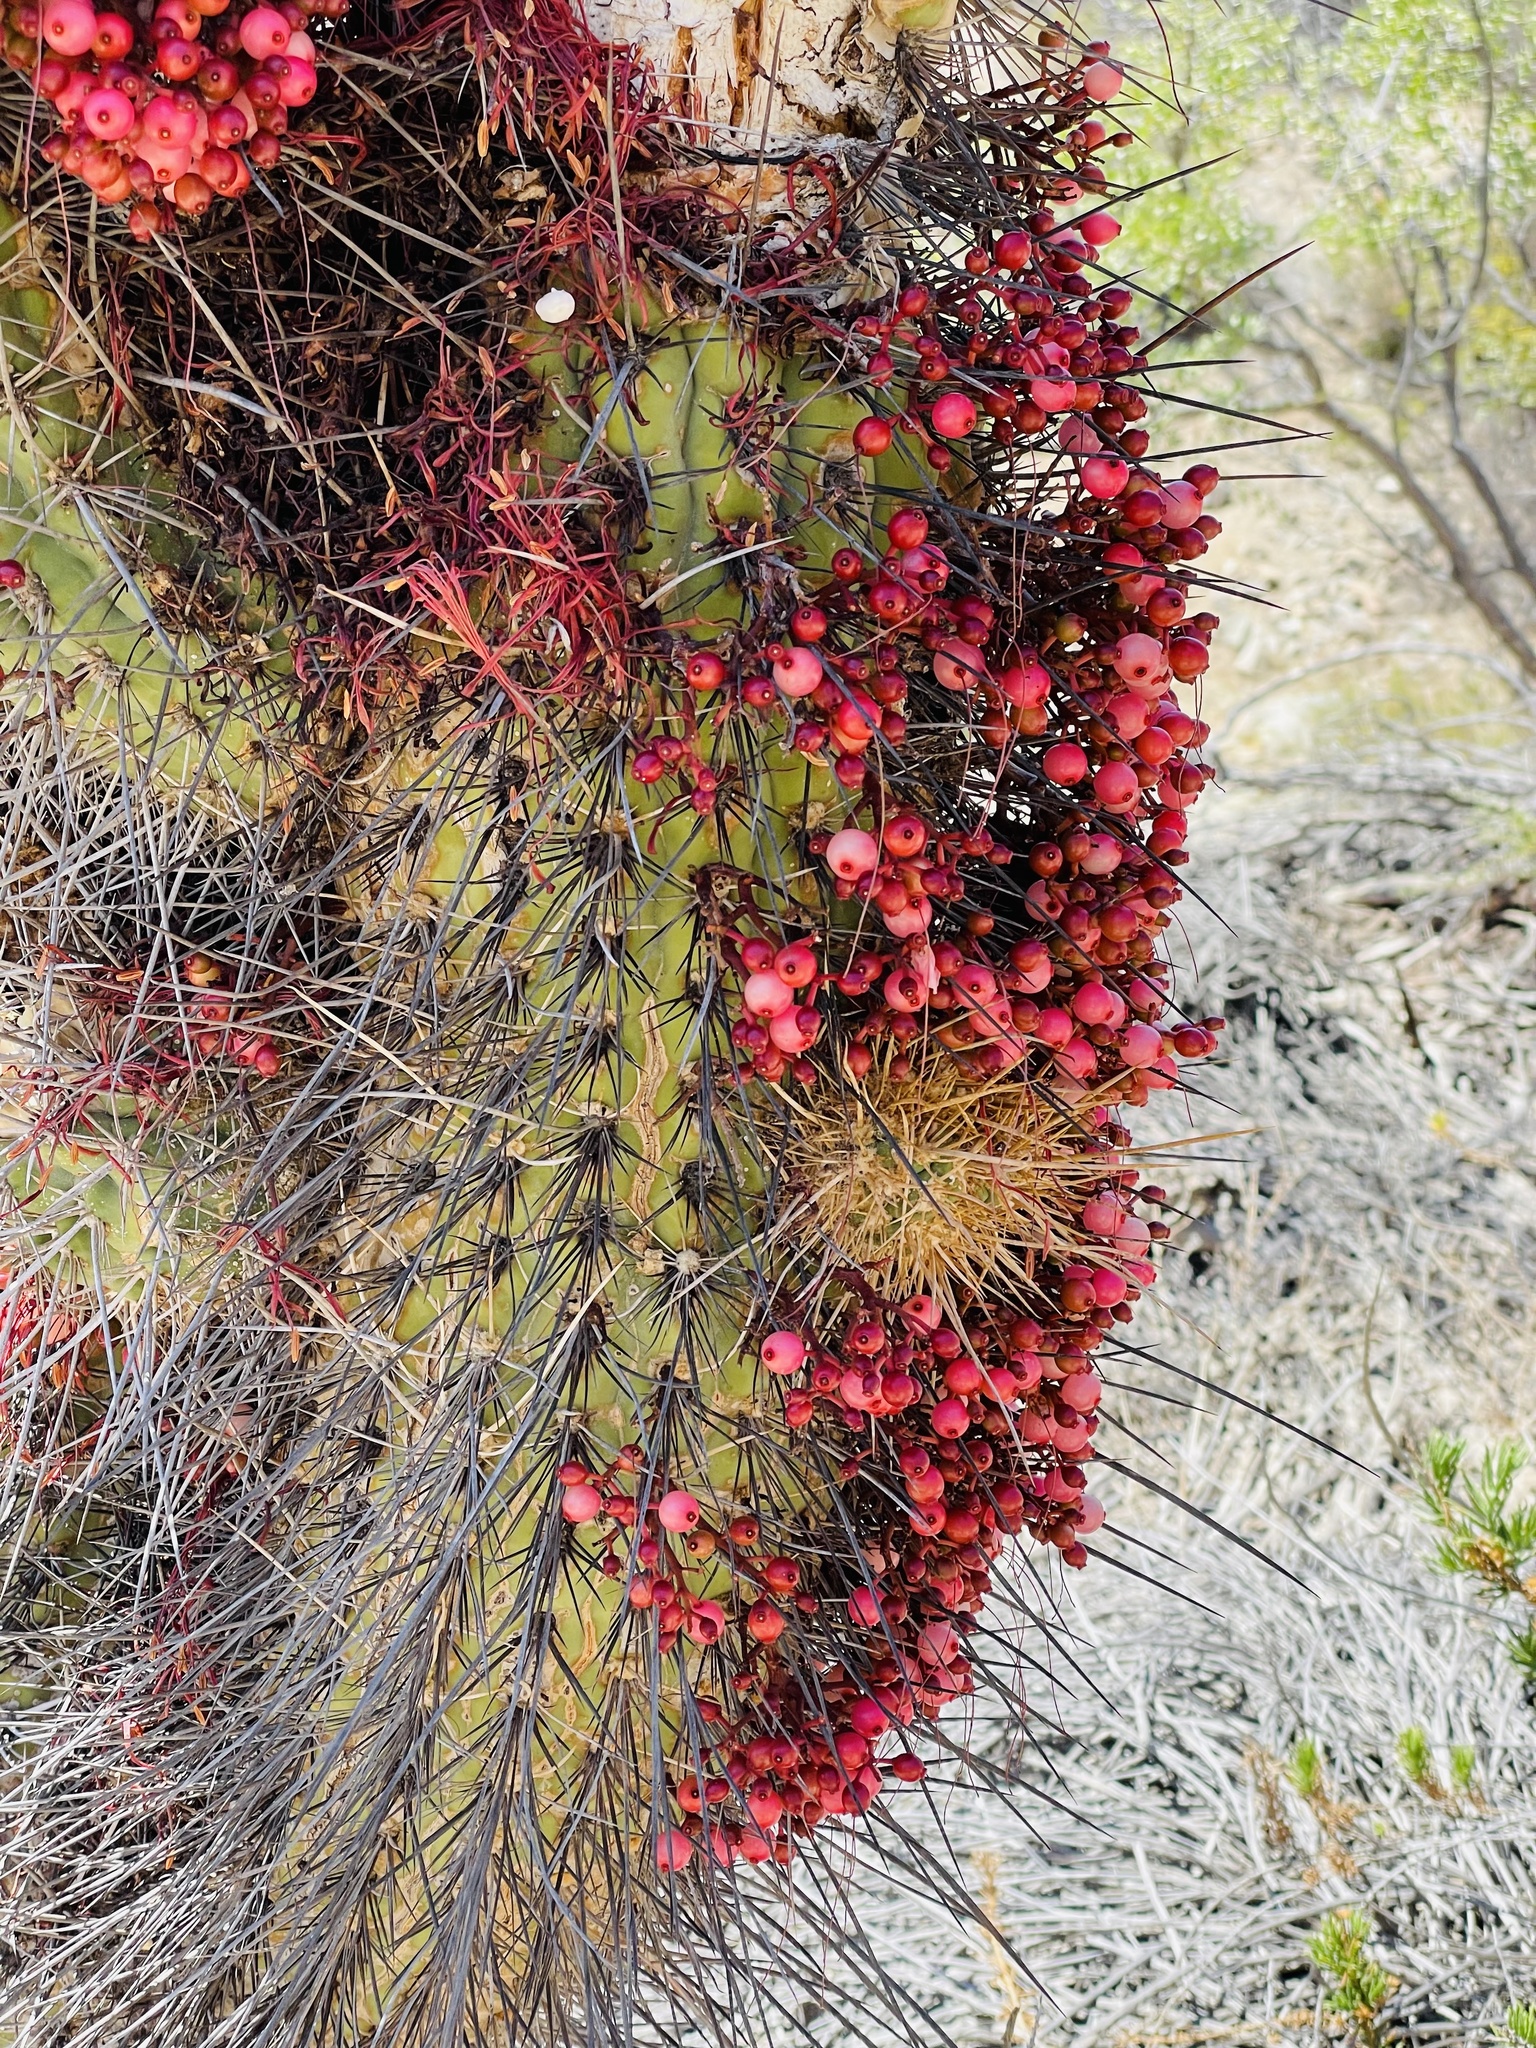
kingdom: Plantae
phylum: Tracheophyta
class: Magnoliopsida
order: Santalales
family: Loranthaceae
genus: Tristerix
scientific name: Tristerix aphyllus
